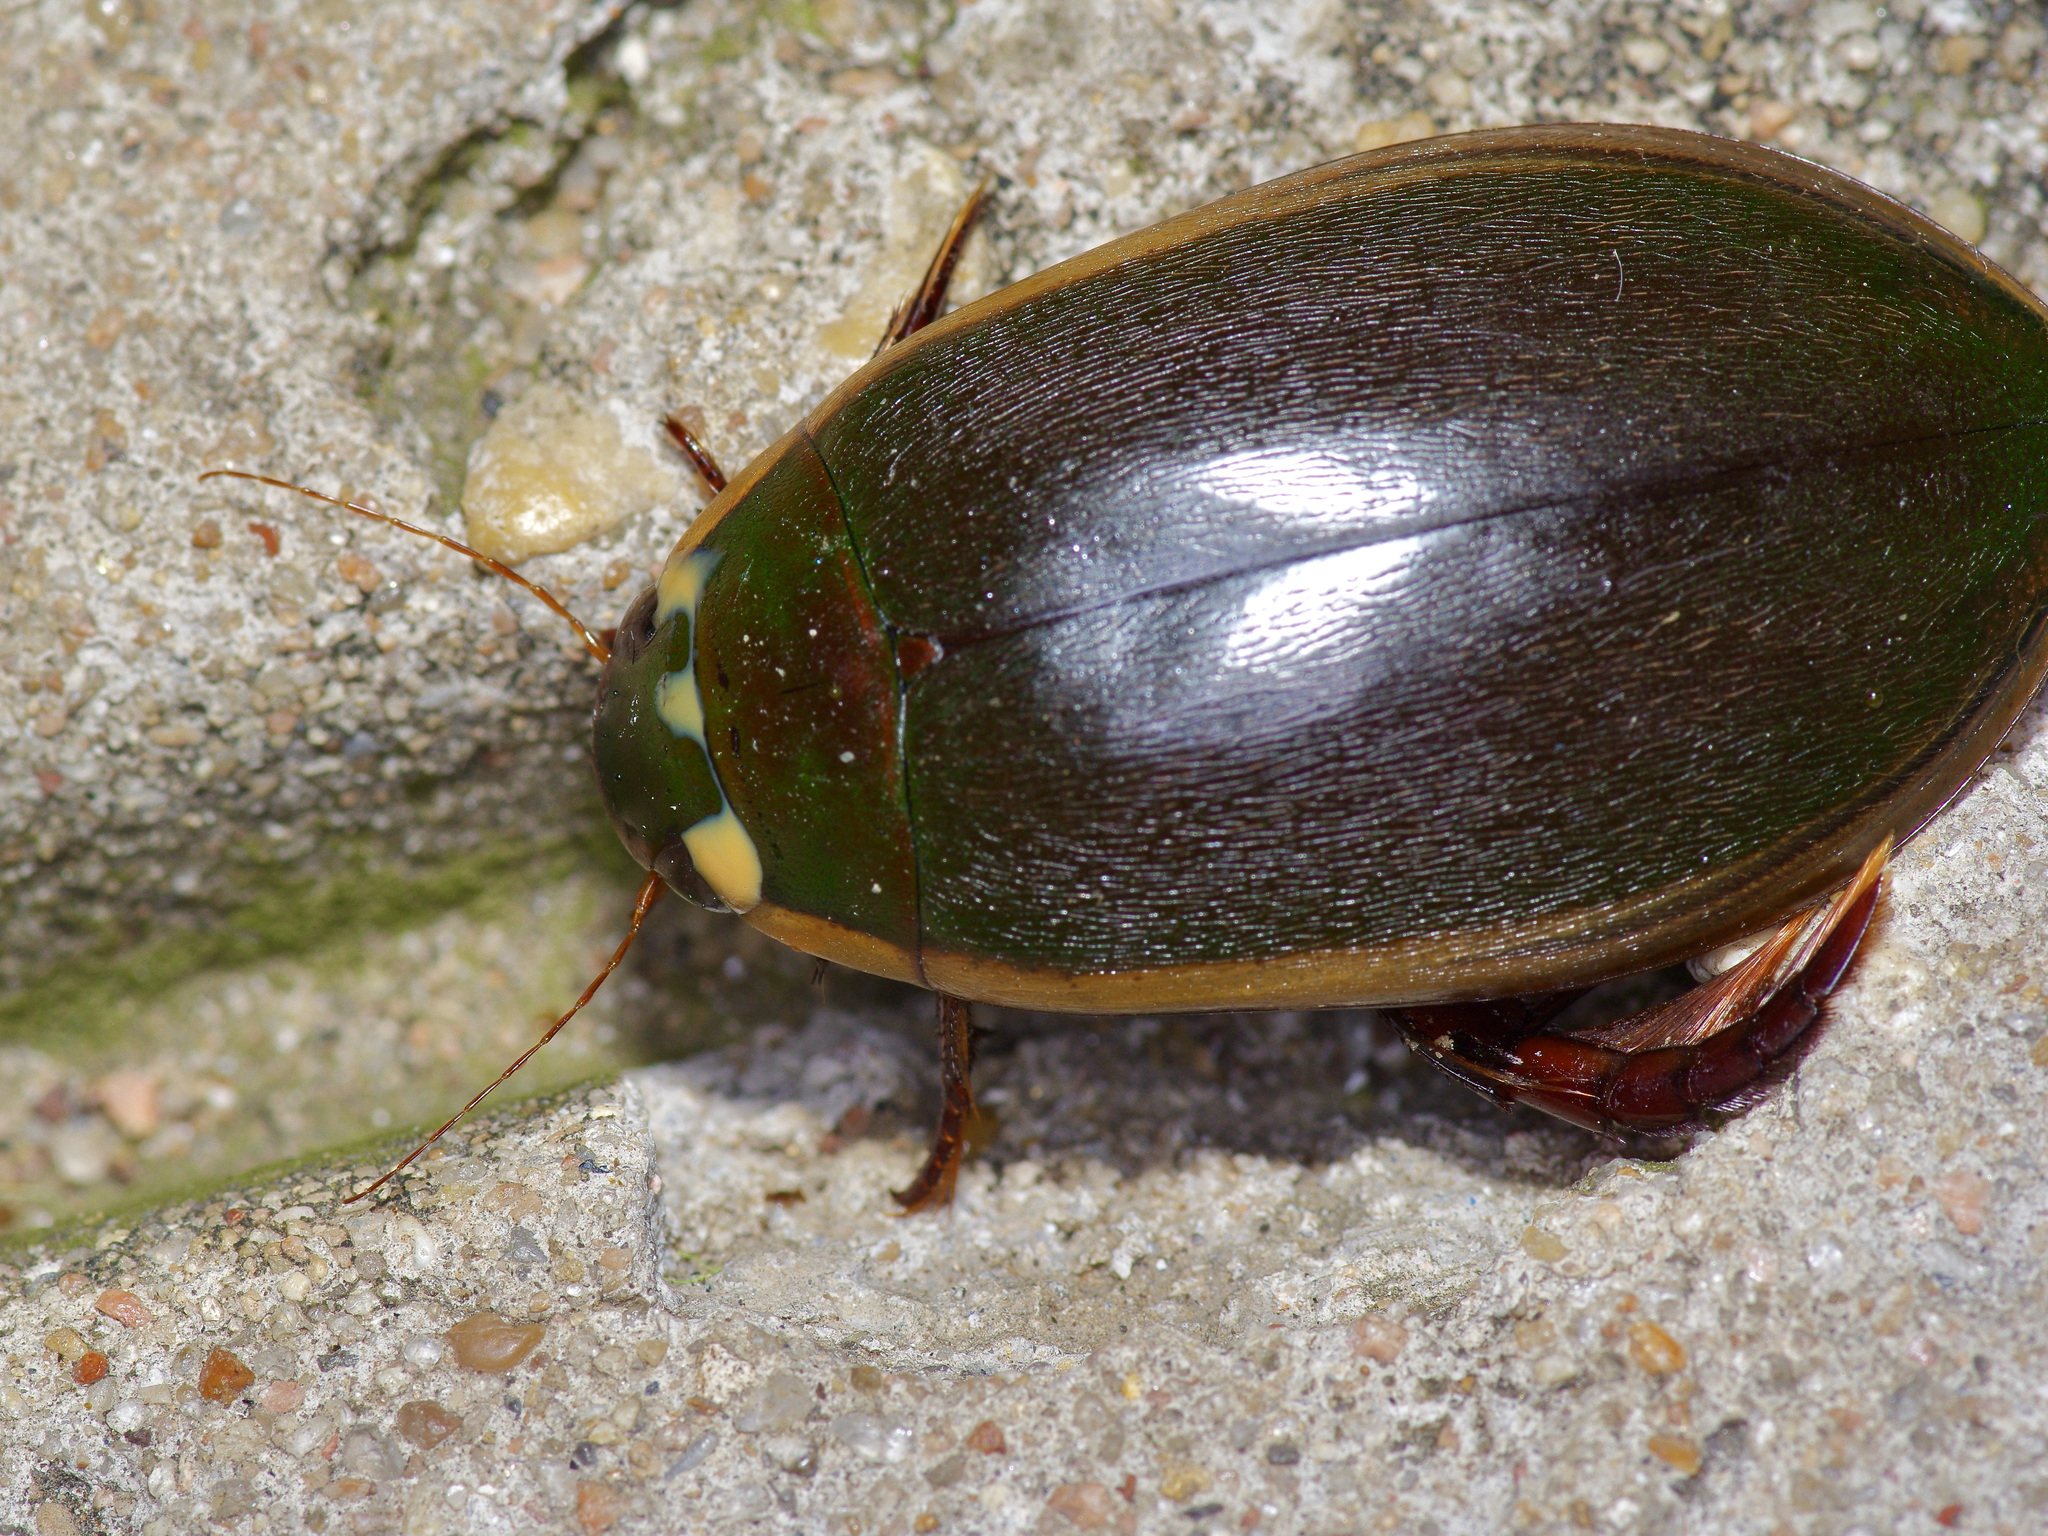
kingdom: Animalia
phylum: Arthropoda
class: Insecta
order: Coleoptera
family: Dytiscidae
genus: Cybister
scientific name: Cybister fimbriolatus
